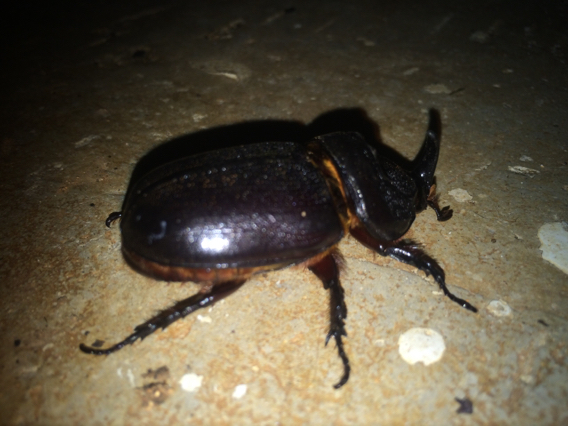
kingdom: Animalia
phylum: Arthropoda
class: Insecta
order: Coleoptera
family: Scarabaeidae
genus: Oryctes
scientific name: Oryctes rhinoceros
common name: Coconut rhinoceros beetle
